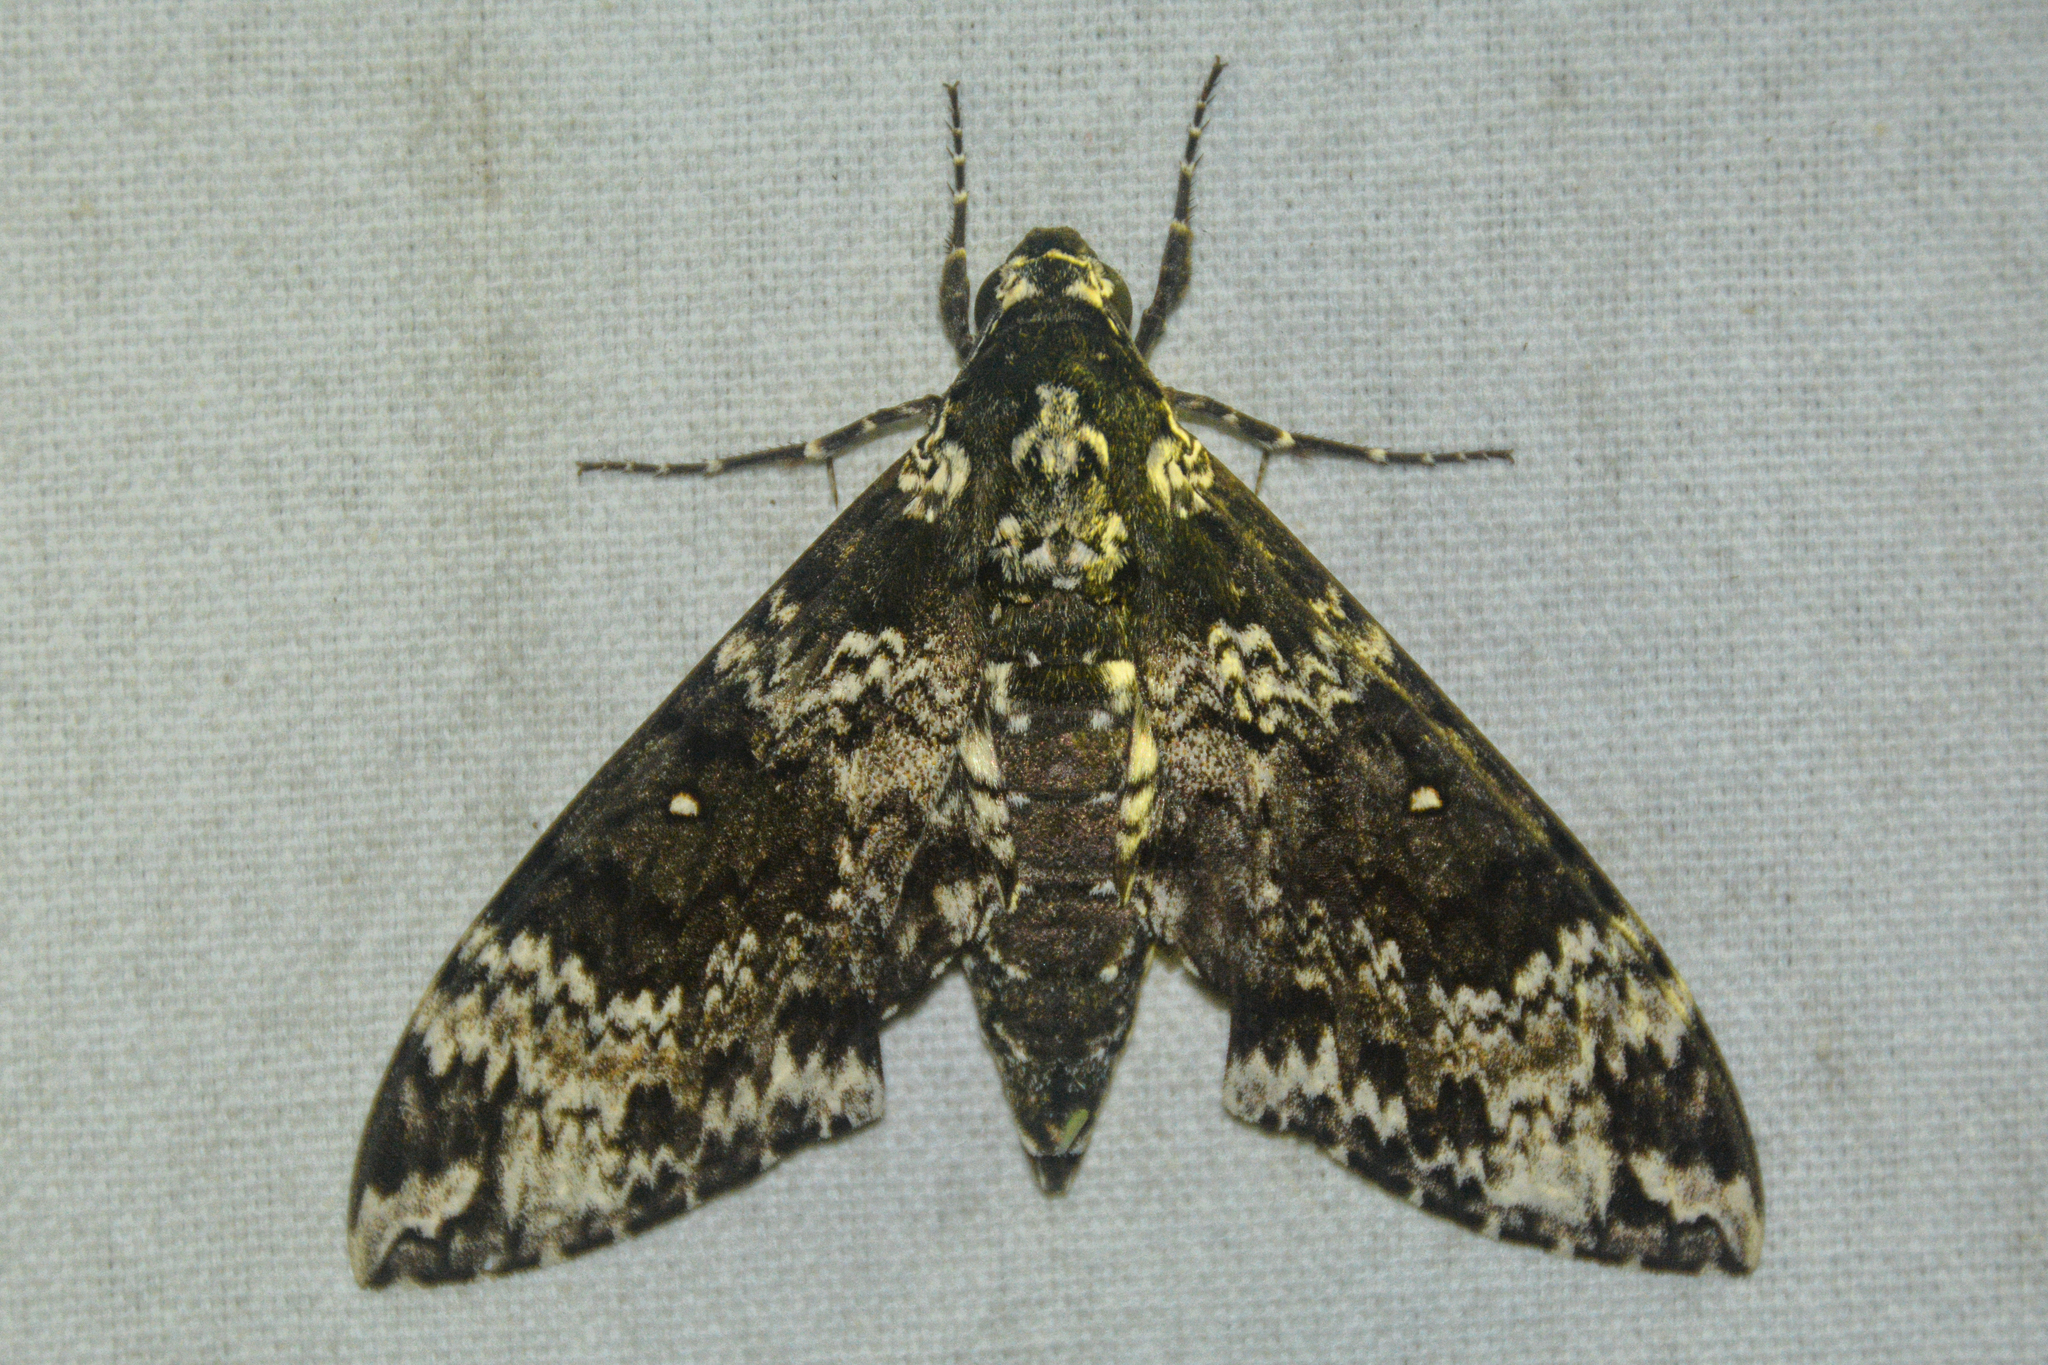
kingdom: Animalia
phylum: Arthropoda
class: Insecta
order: Lepidoptera
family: Sphingidae
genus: Manduca
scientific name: Manduca rustica
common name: Rustic sphinx
